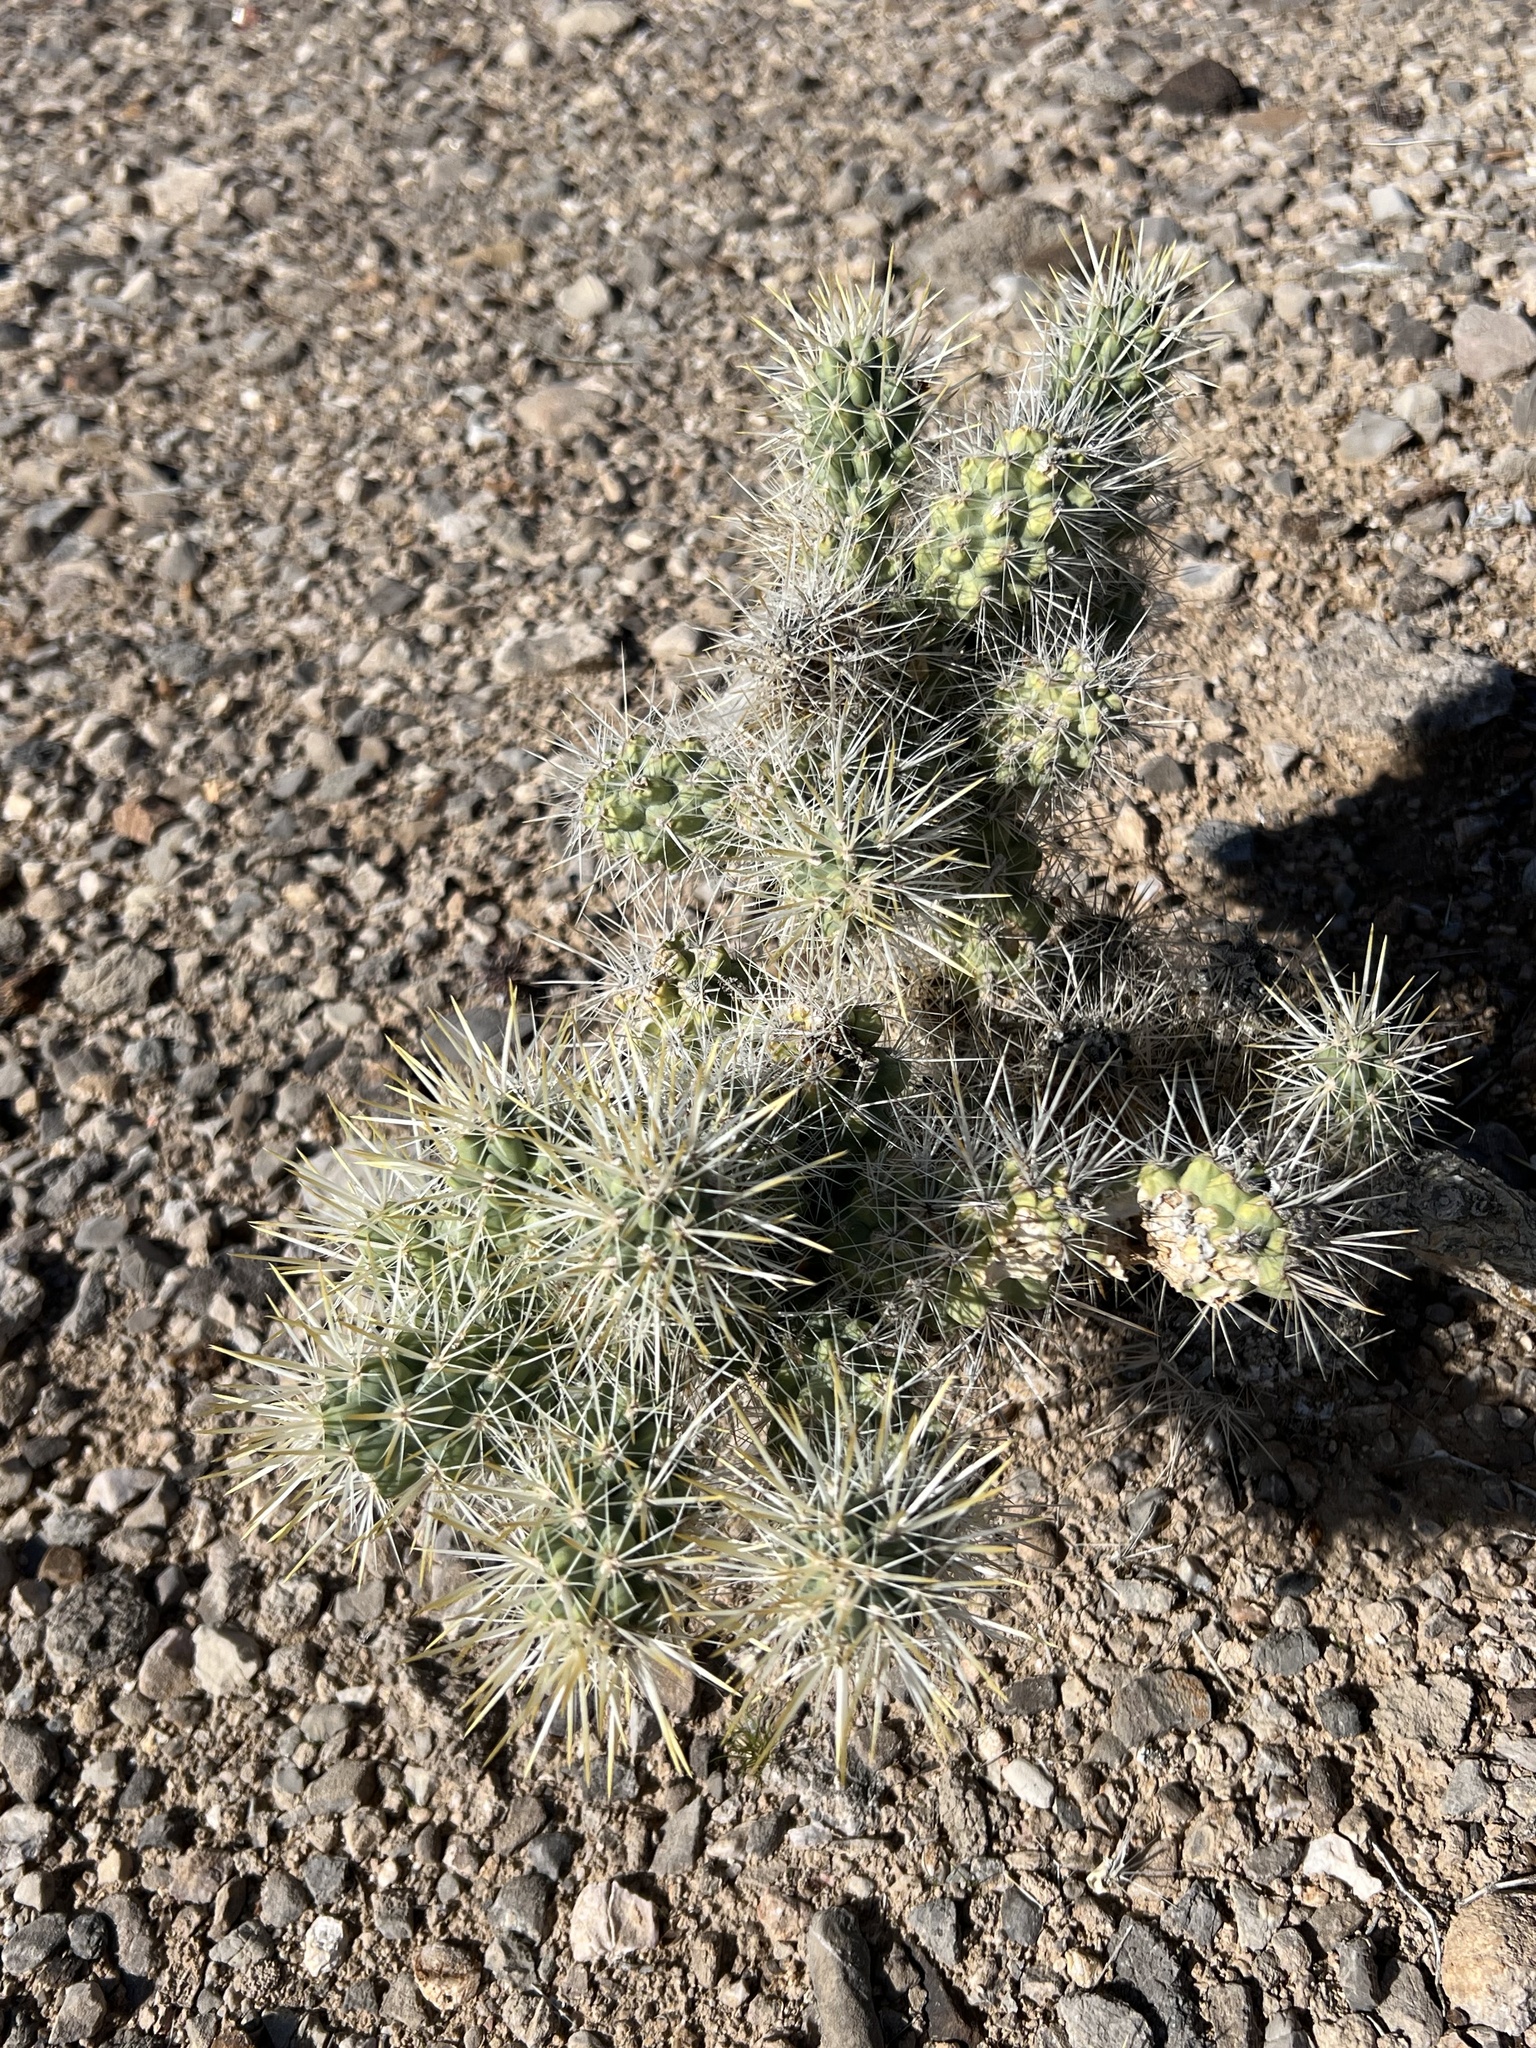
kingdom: Plantae
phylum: Tracheophyta
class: Magnoliopsida
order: Caryophyllales
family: Cactaceae
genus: Cylindropuntia
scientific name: Cylindropuntia echinocarpa
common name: Ground cholla
